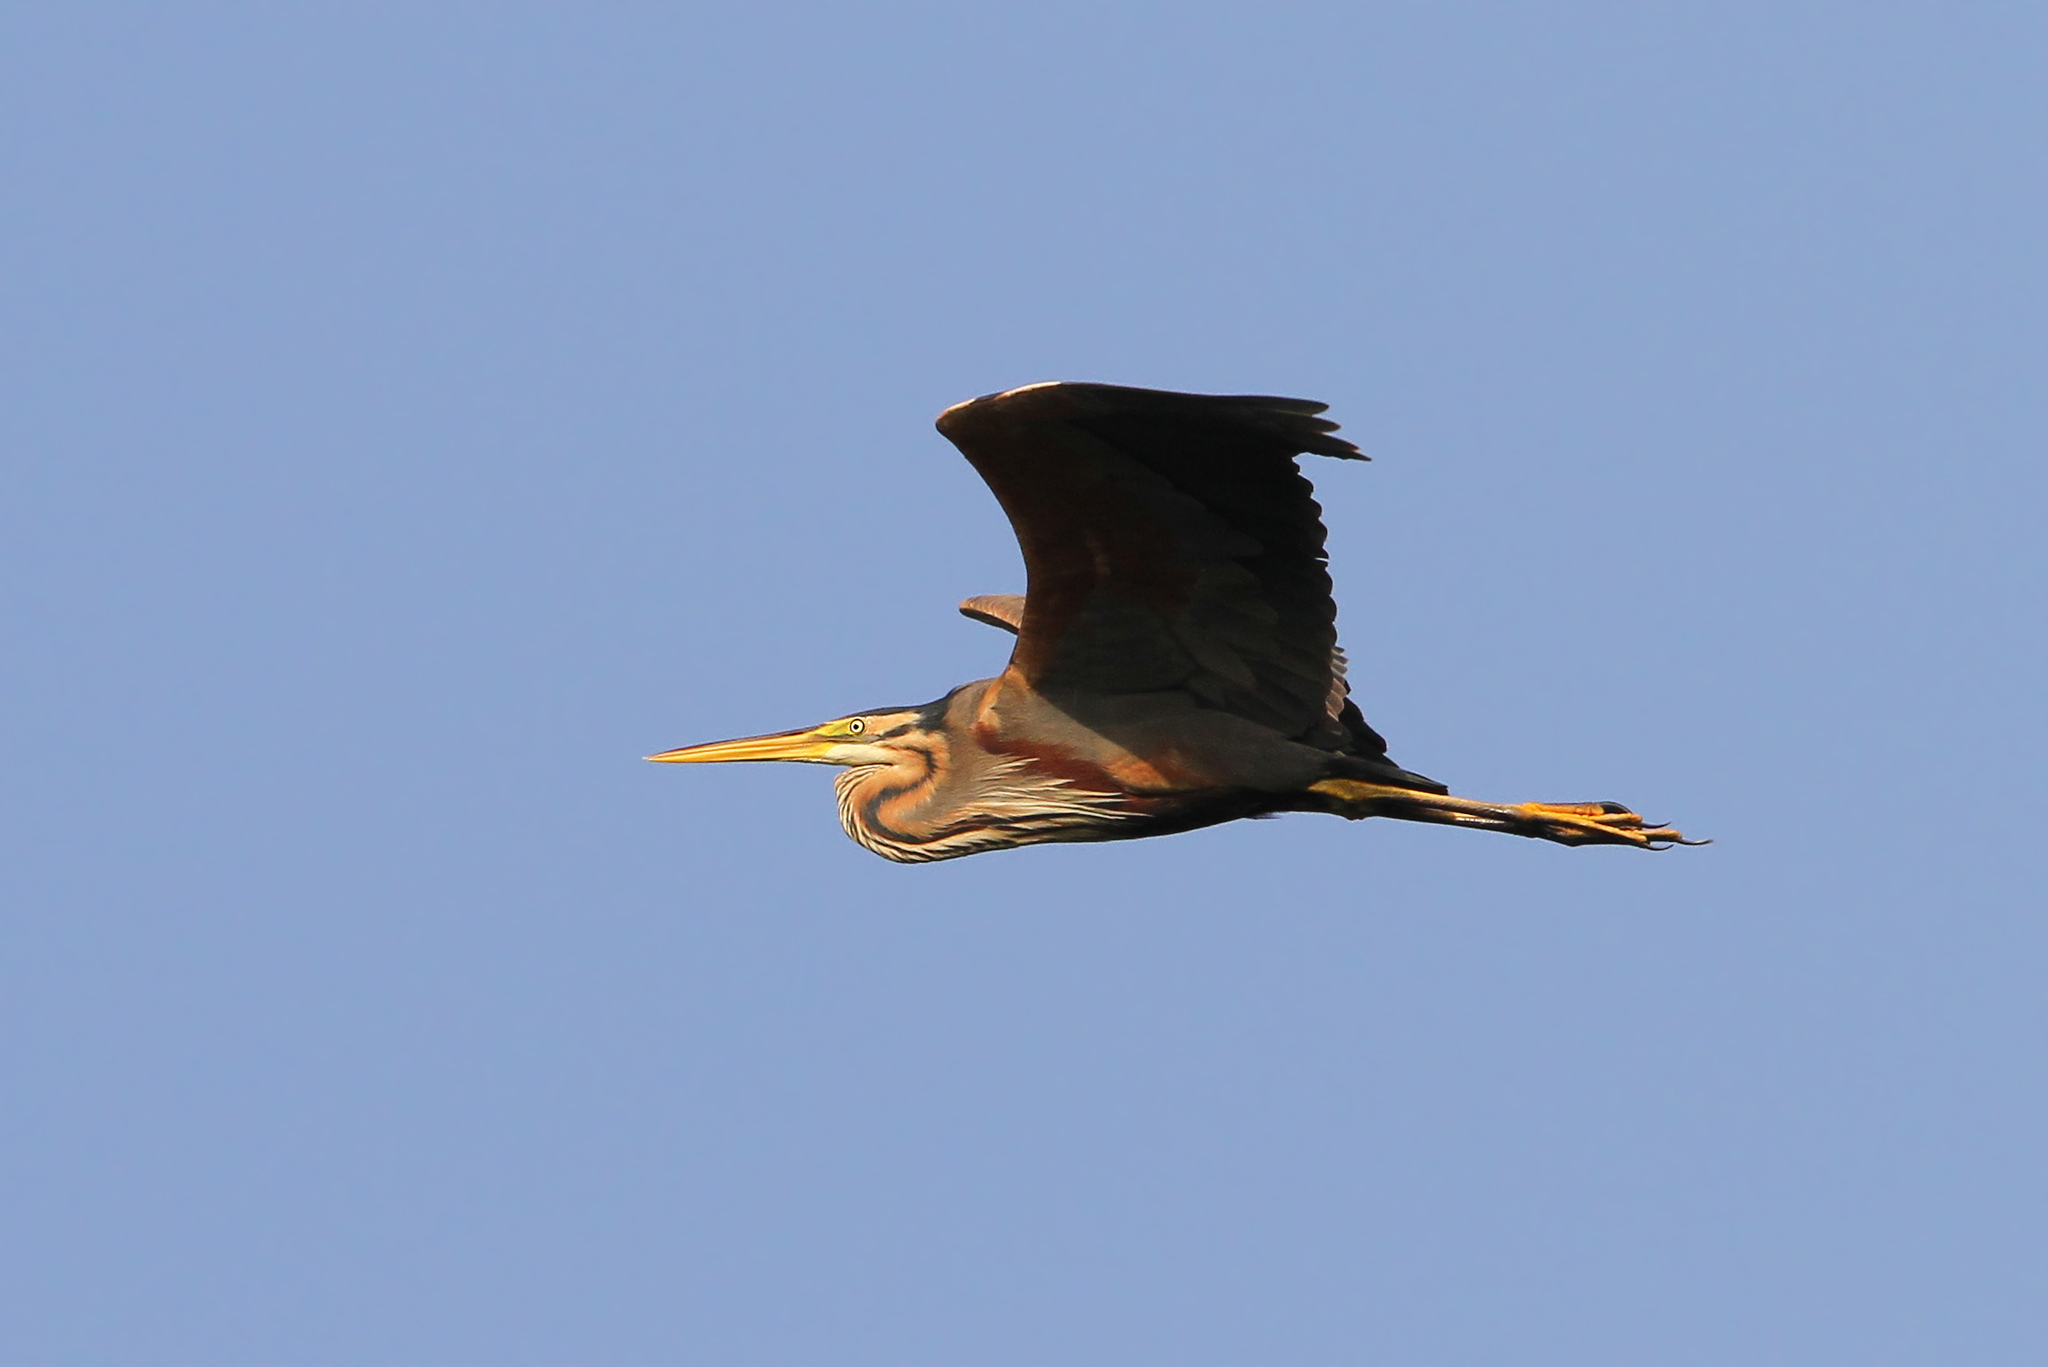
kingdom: Animalia
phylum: Chordata
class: Aves
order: Pelecaniformes
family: Ardeidae
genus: Ardea
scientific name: Ardea purpurea
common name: Purple heron
